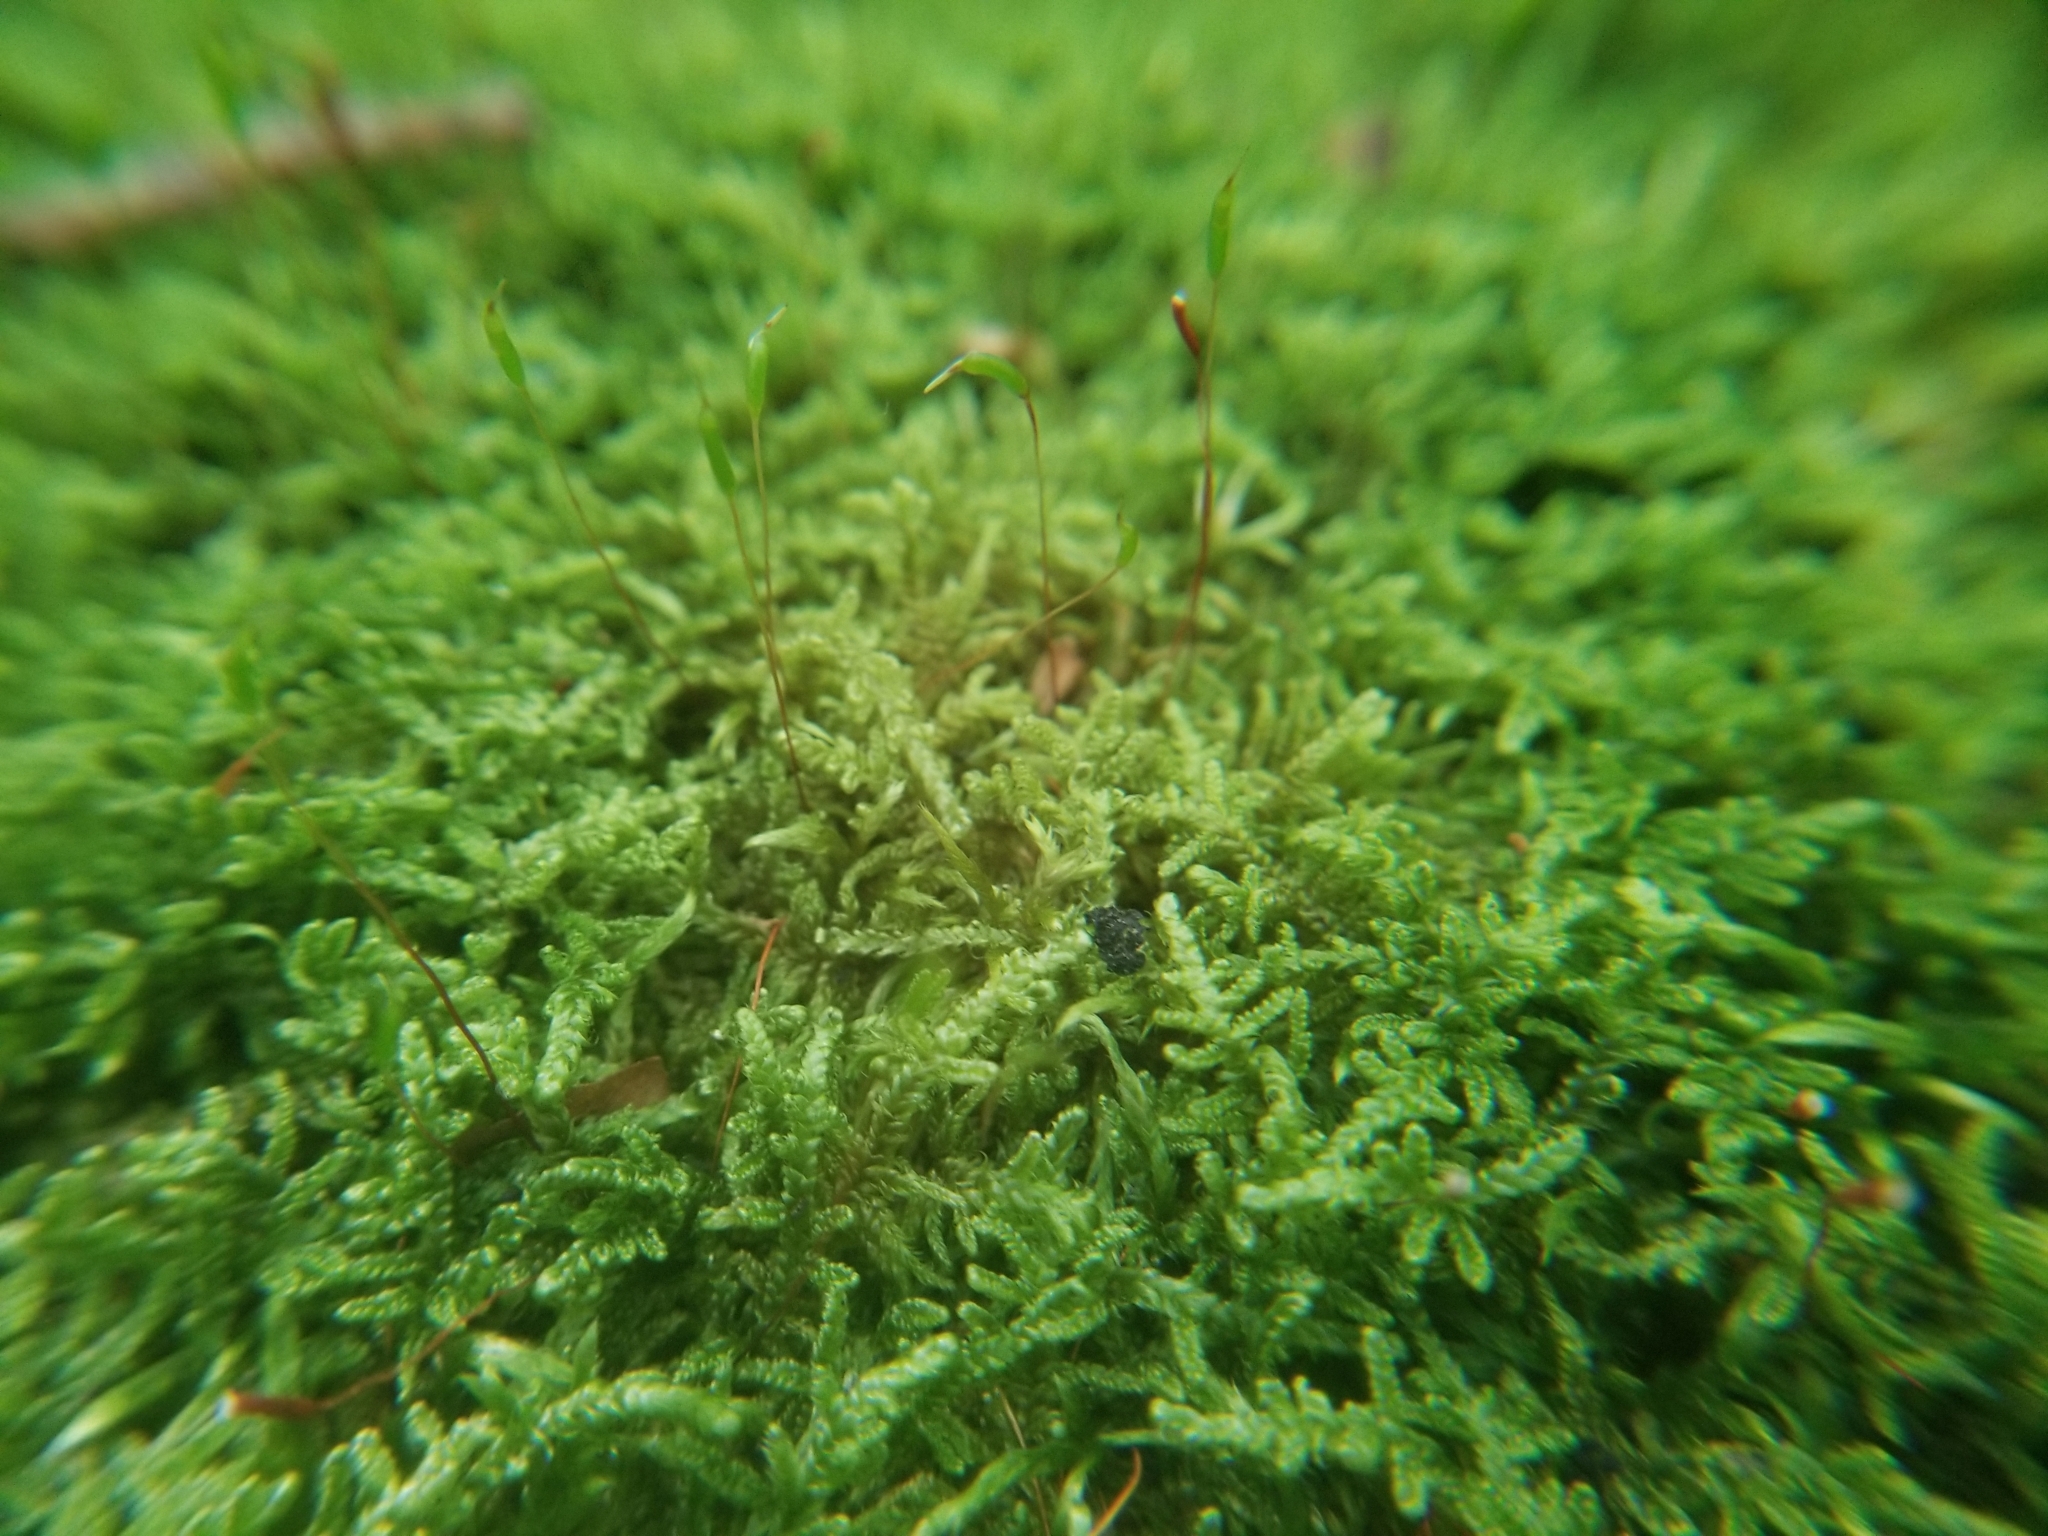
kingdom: Plantae
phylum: Bryophyta
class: Bryopsida
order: Hypnales
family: Callicladiaceae
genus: Callicladium
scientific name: Callicladium imponens
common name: Brocade moss
